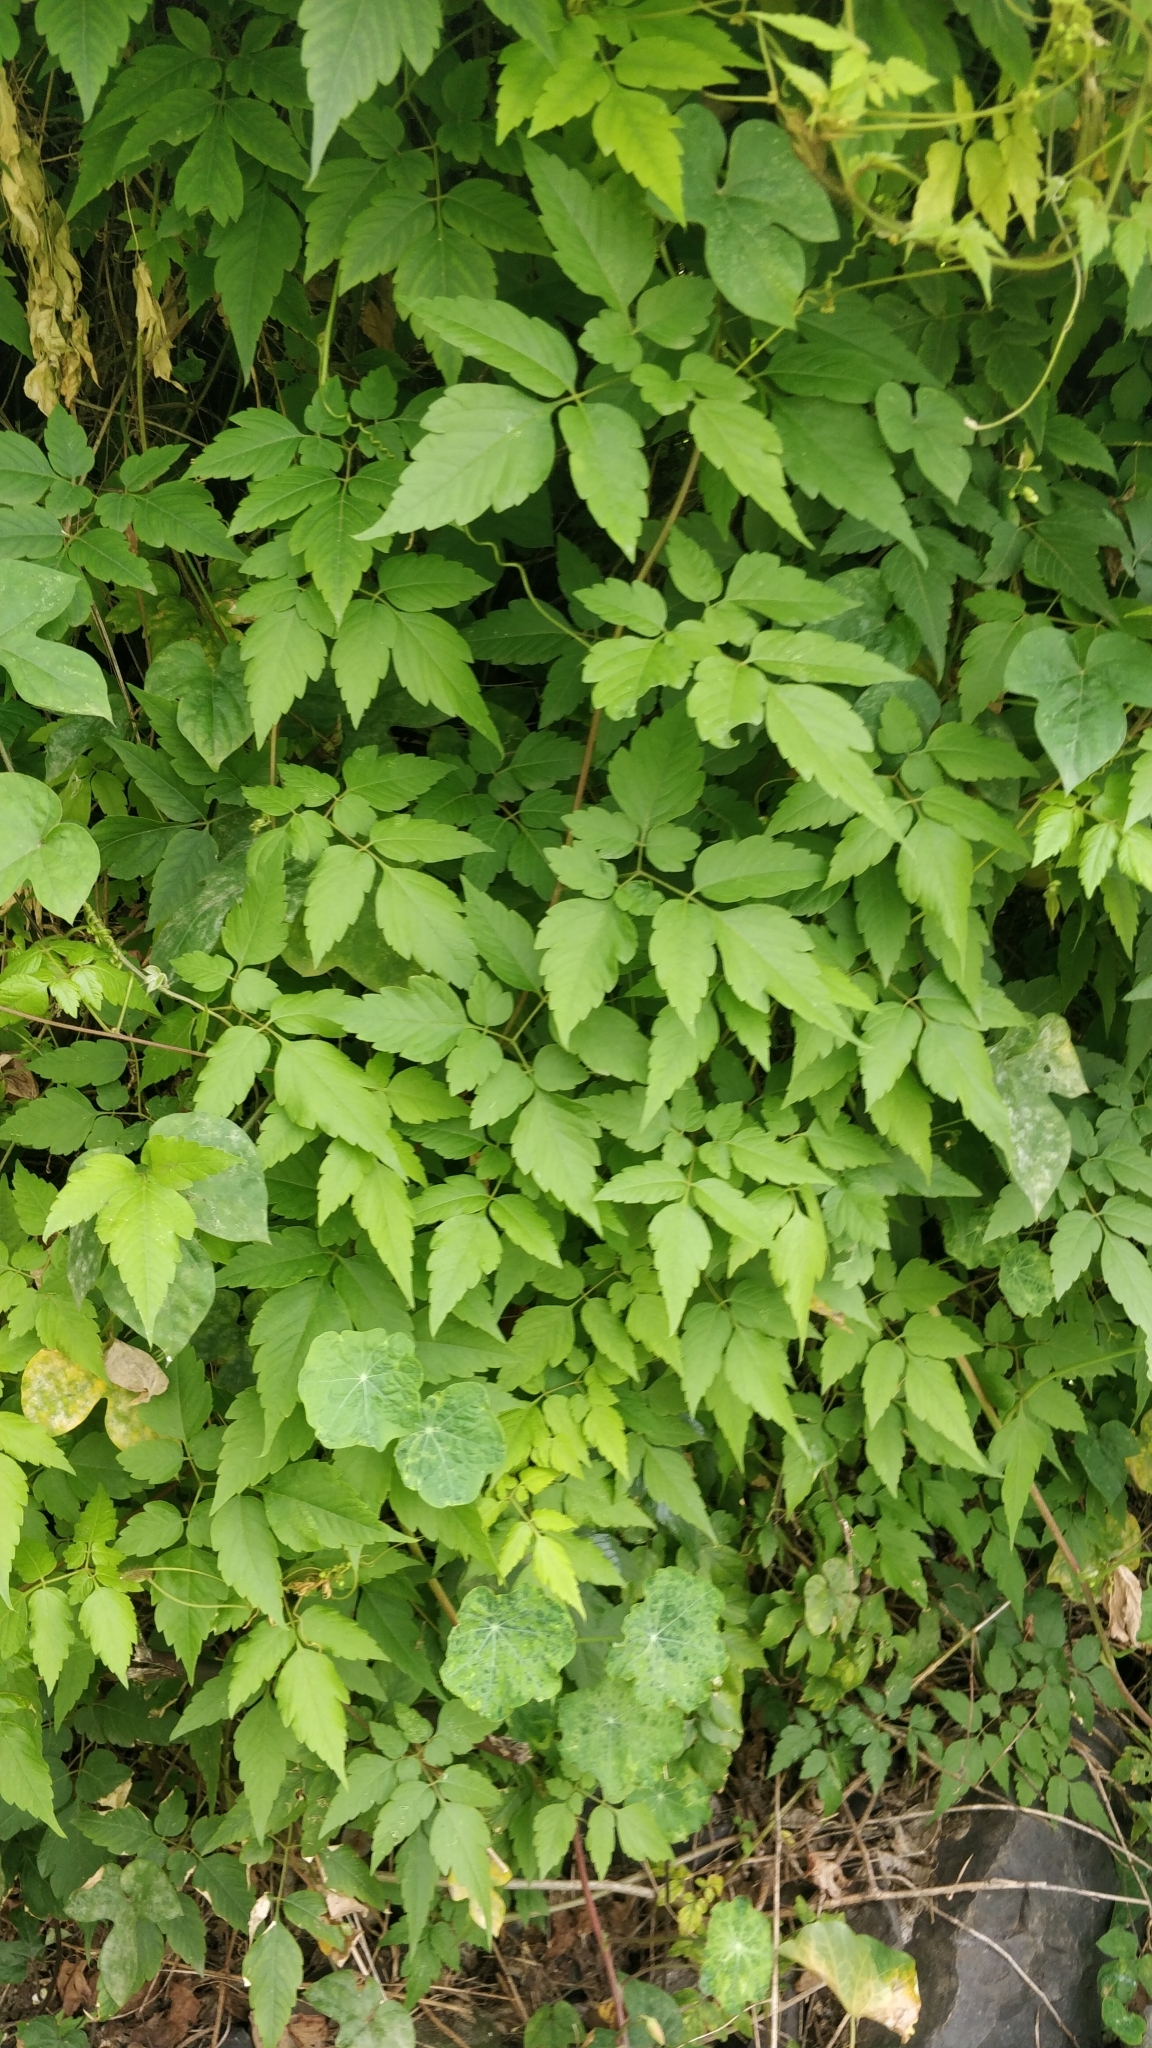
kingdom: Plantae
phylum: Tracheophyta
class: Magnoliopsida
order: Sapindales
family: Sapindaceae
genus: Cardiospermum
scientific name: Cardiospermum grandiflorum
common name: Balloon vine
